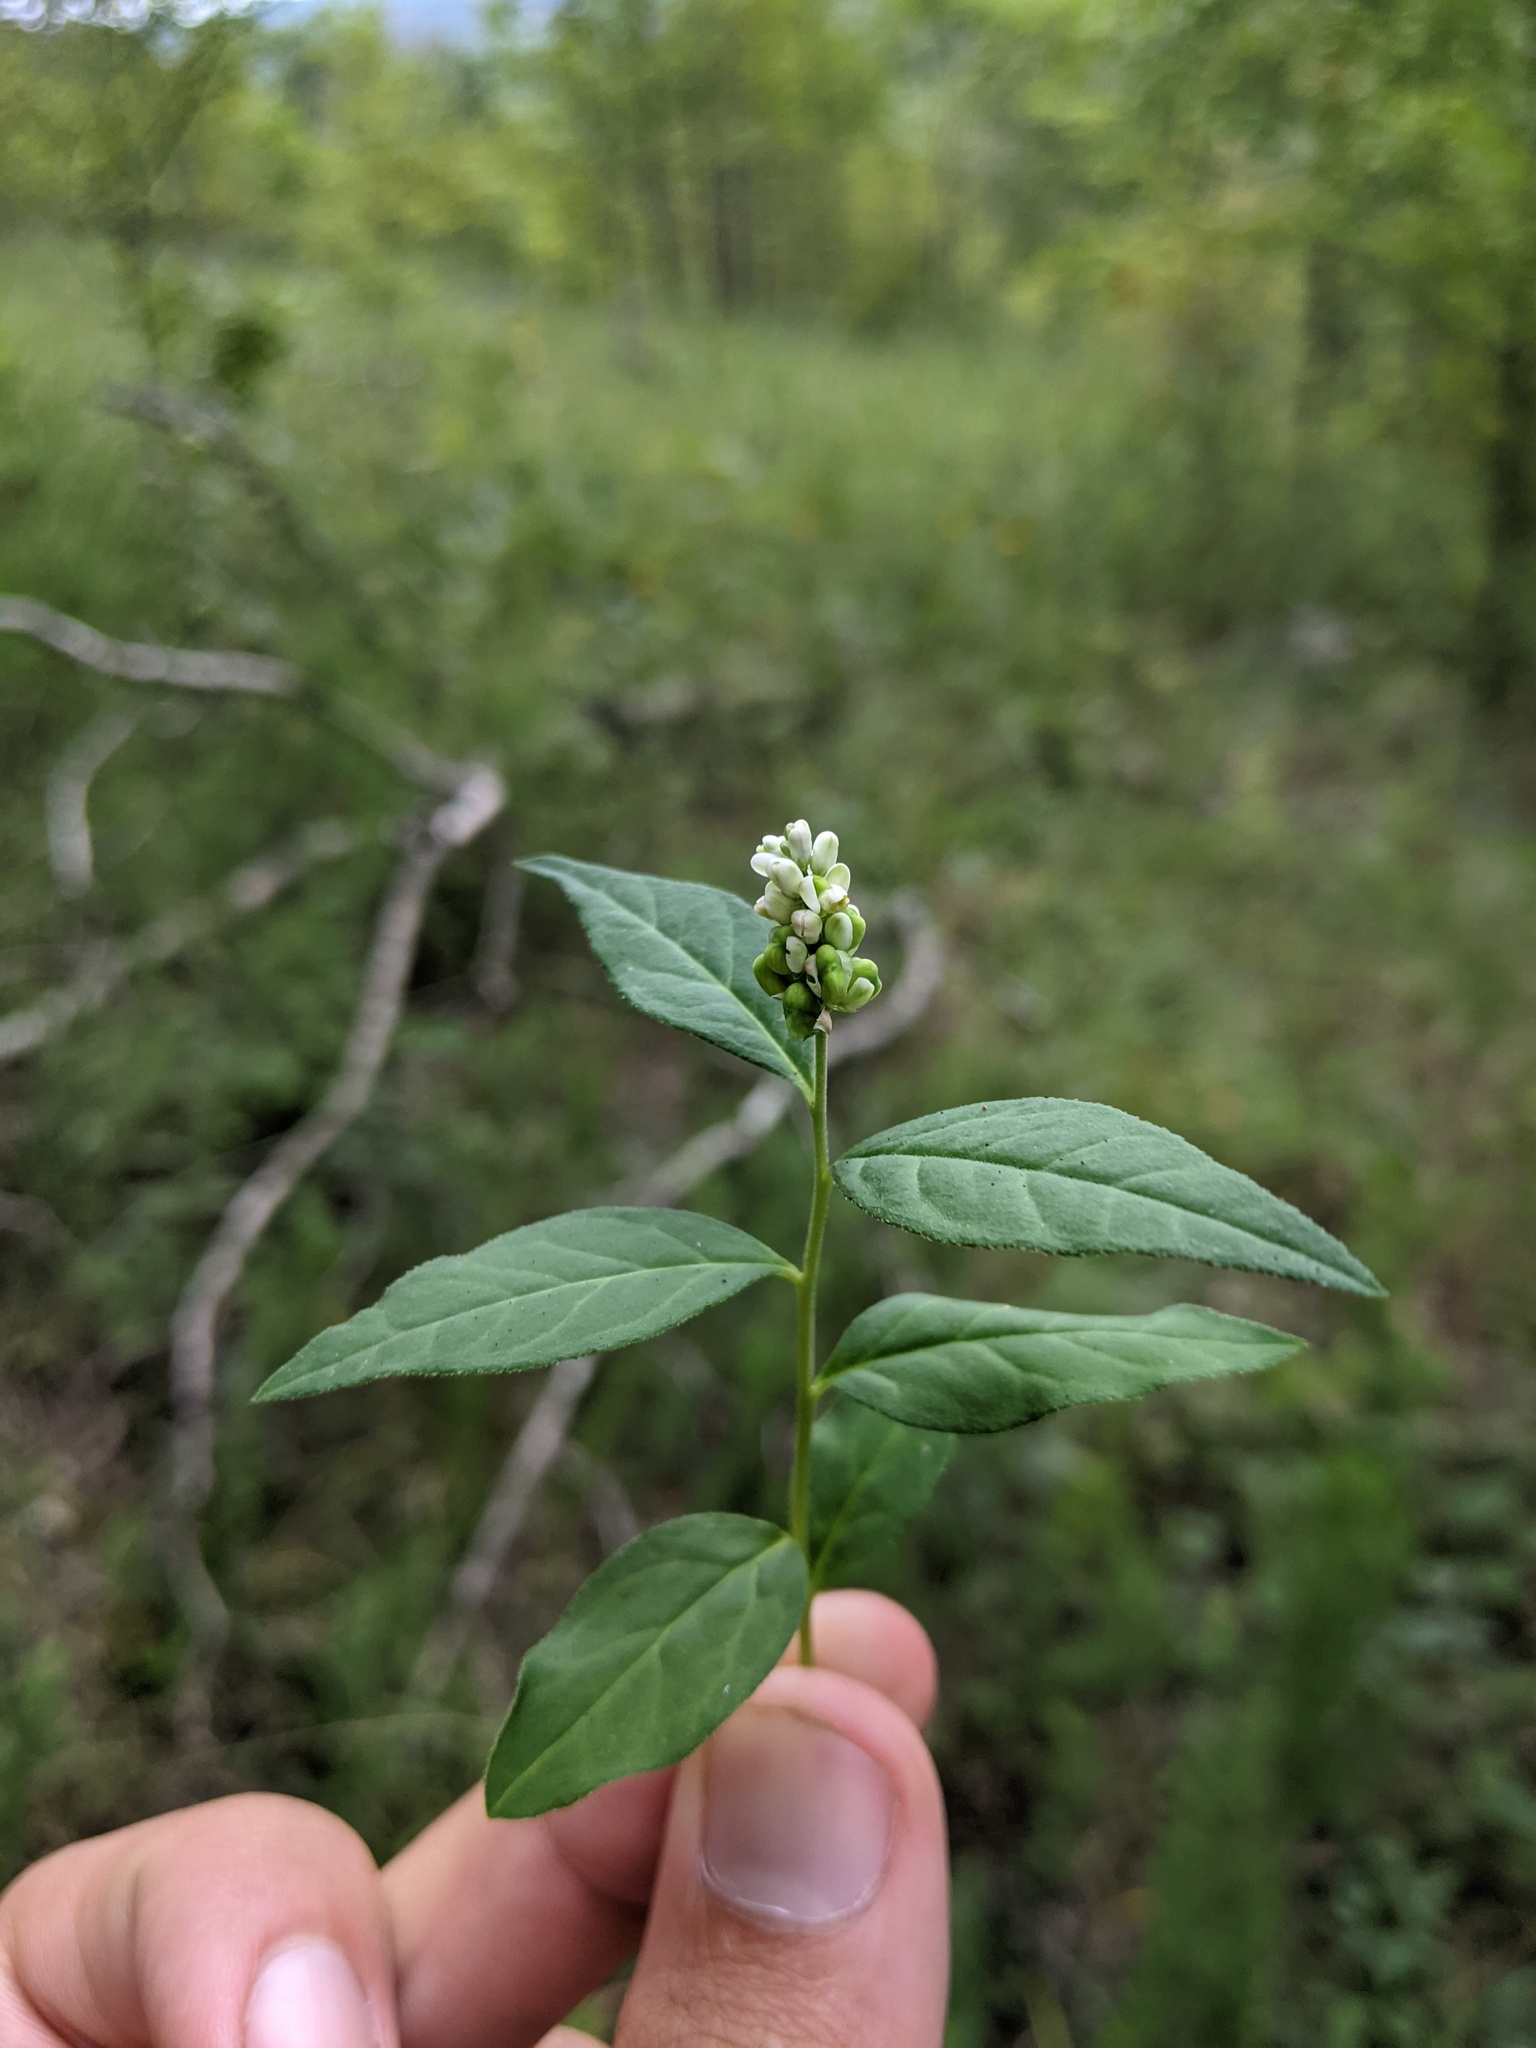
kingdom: Plantae
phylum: Tracheophyta
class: Magnoliopsida
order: Fabales
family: Polygalaceae
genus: Polygala
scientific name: Polygala senega
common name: Seneca snakeroot
